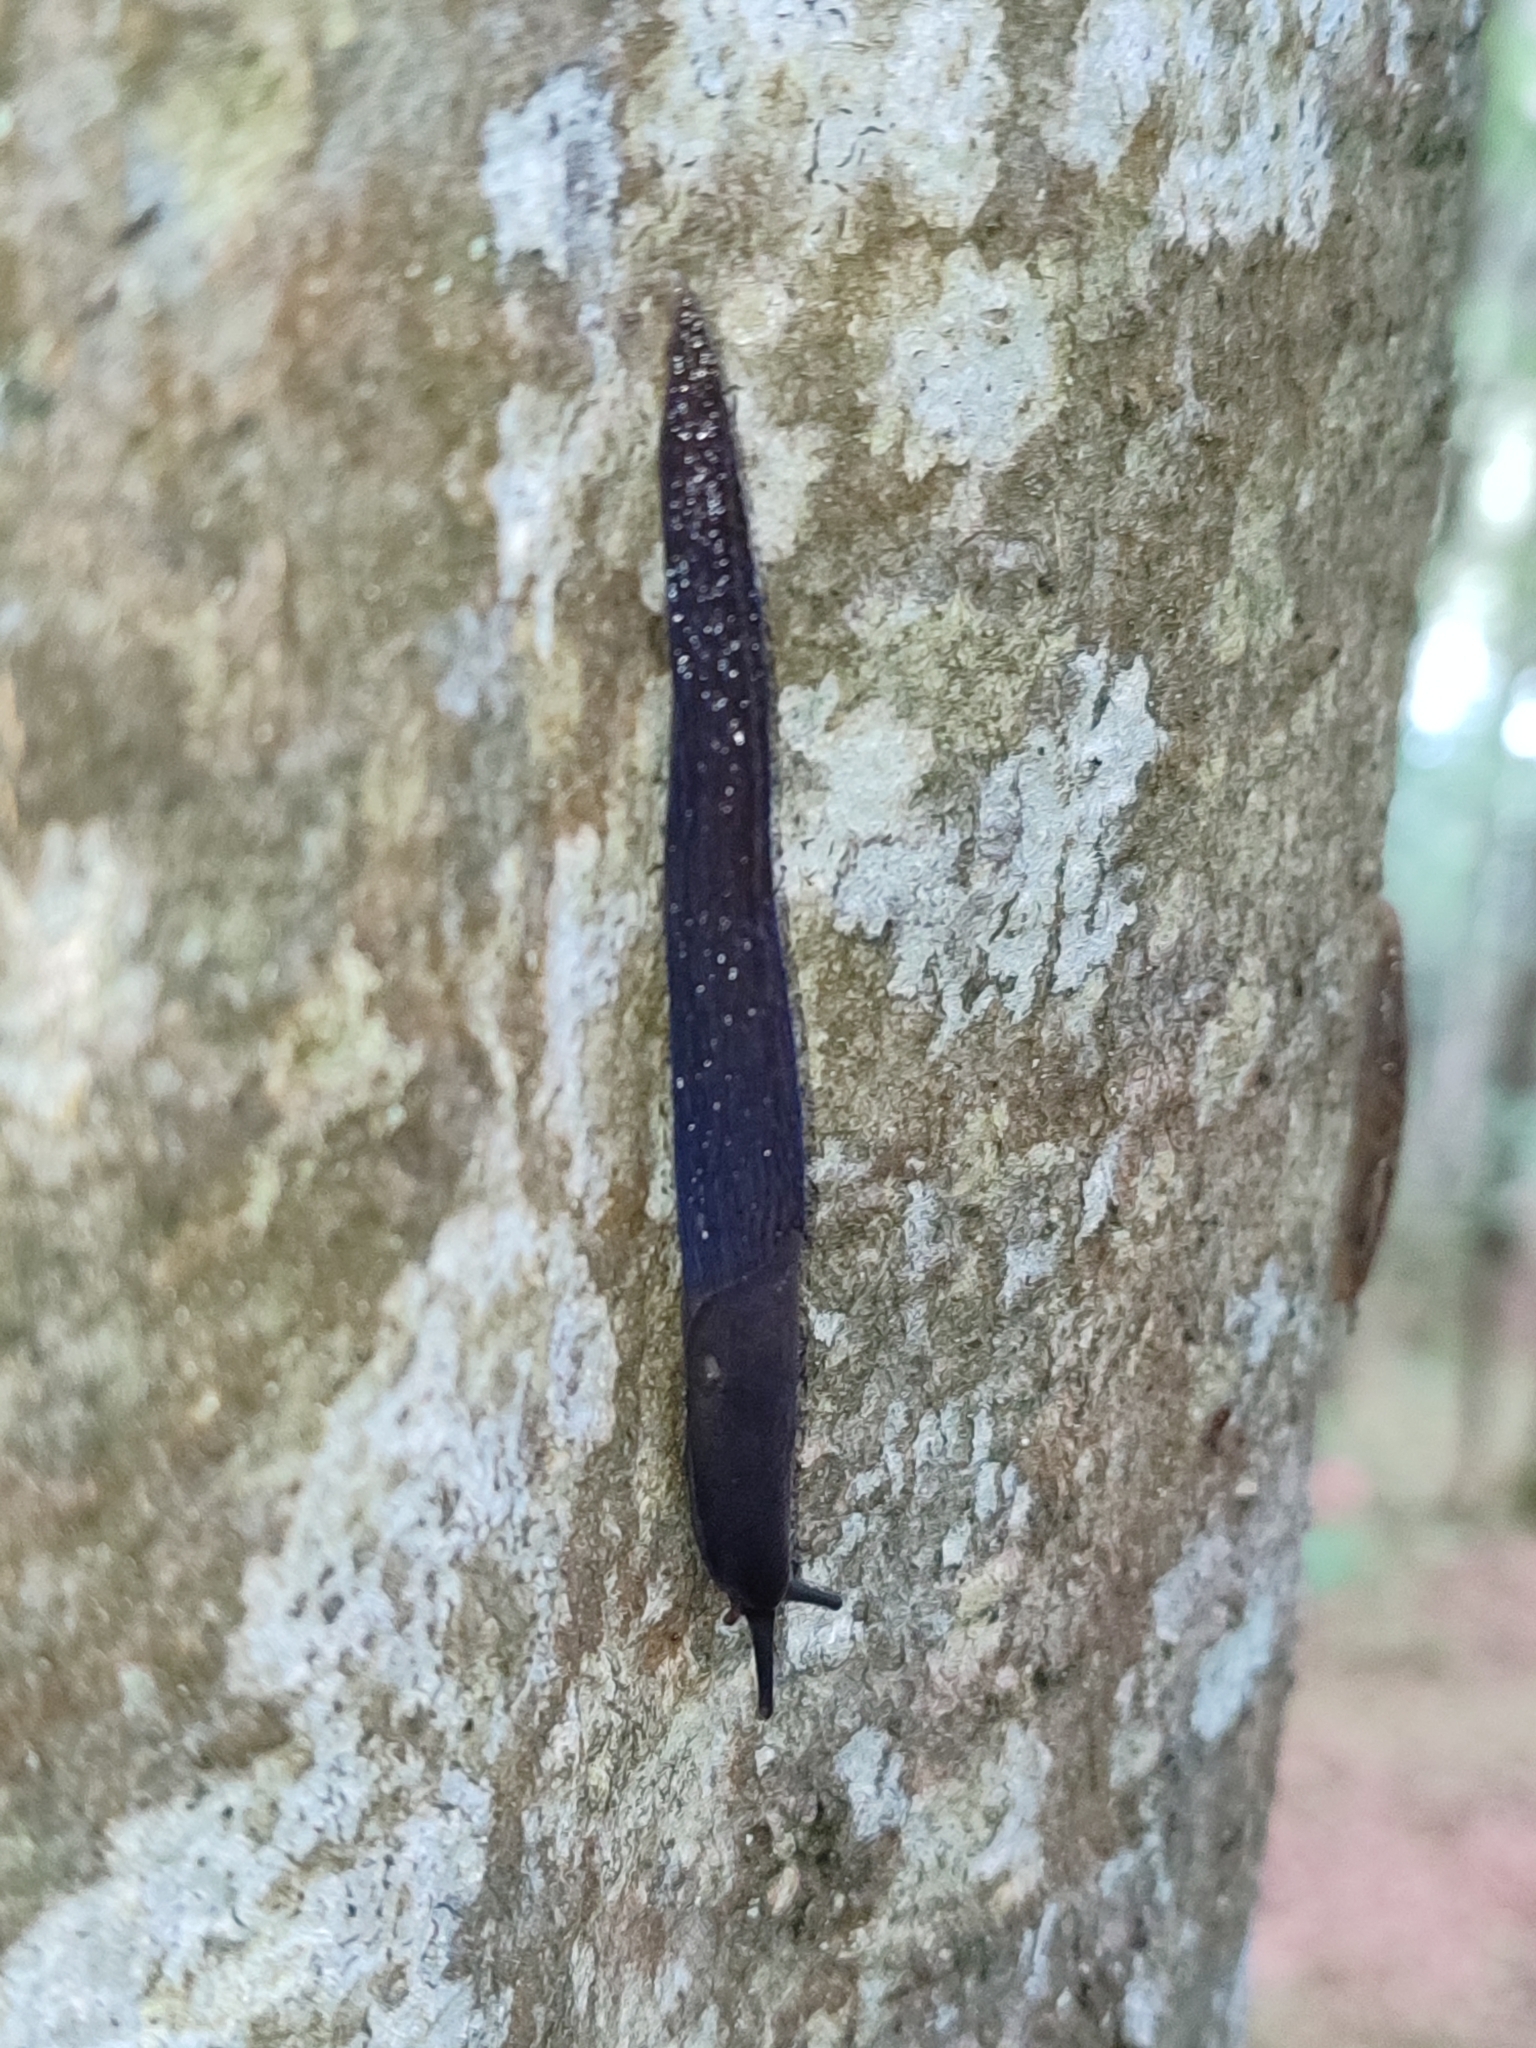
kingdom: Animalia
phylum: Mollusca
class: Gastropoda
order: Stylommatophora
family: Limacidae
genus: Bielzia
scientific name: Bielzia coerulans
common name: Carpathian blue slug
